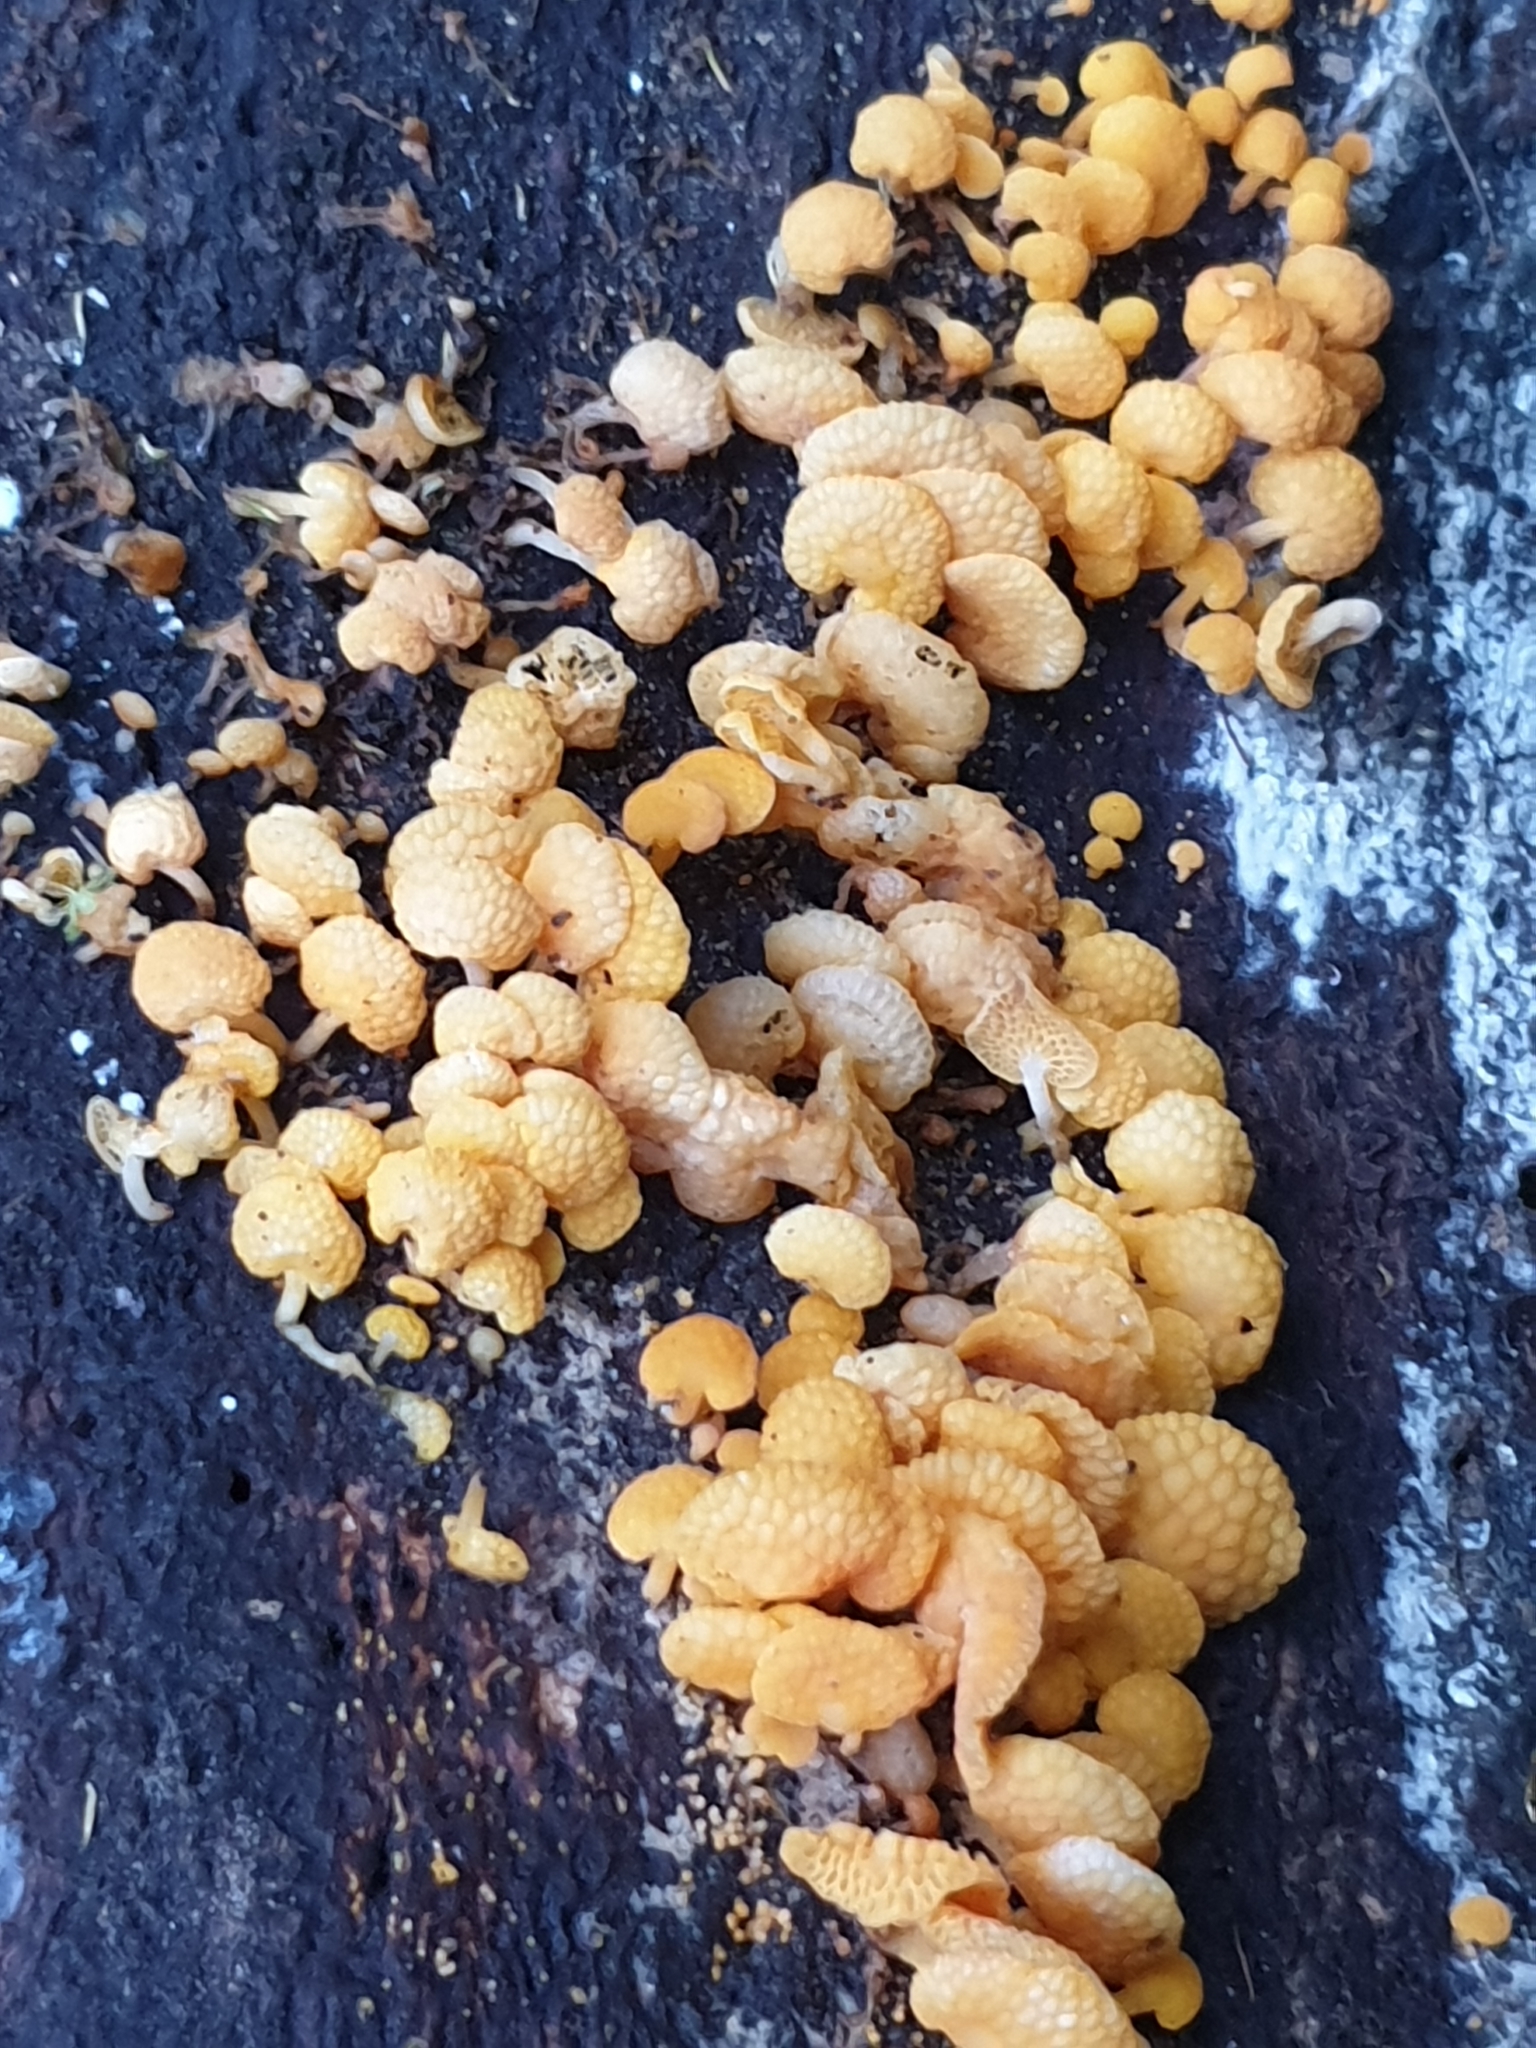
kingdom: Fungi
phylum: Basidiomycota
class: Agaricomycetes
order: Agaricales
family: Mycenaceae
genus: Favolaschia
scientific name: Favolaschia claudopus
